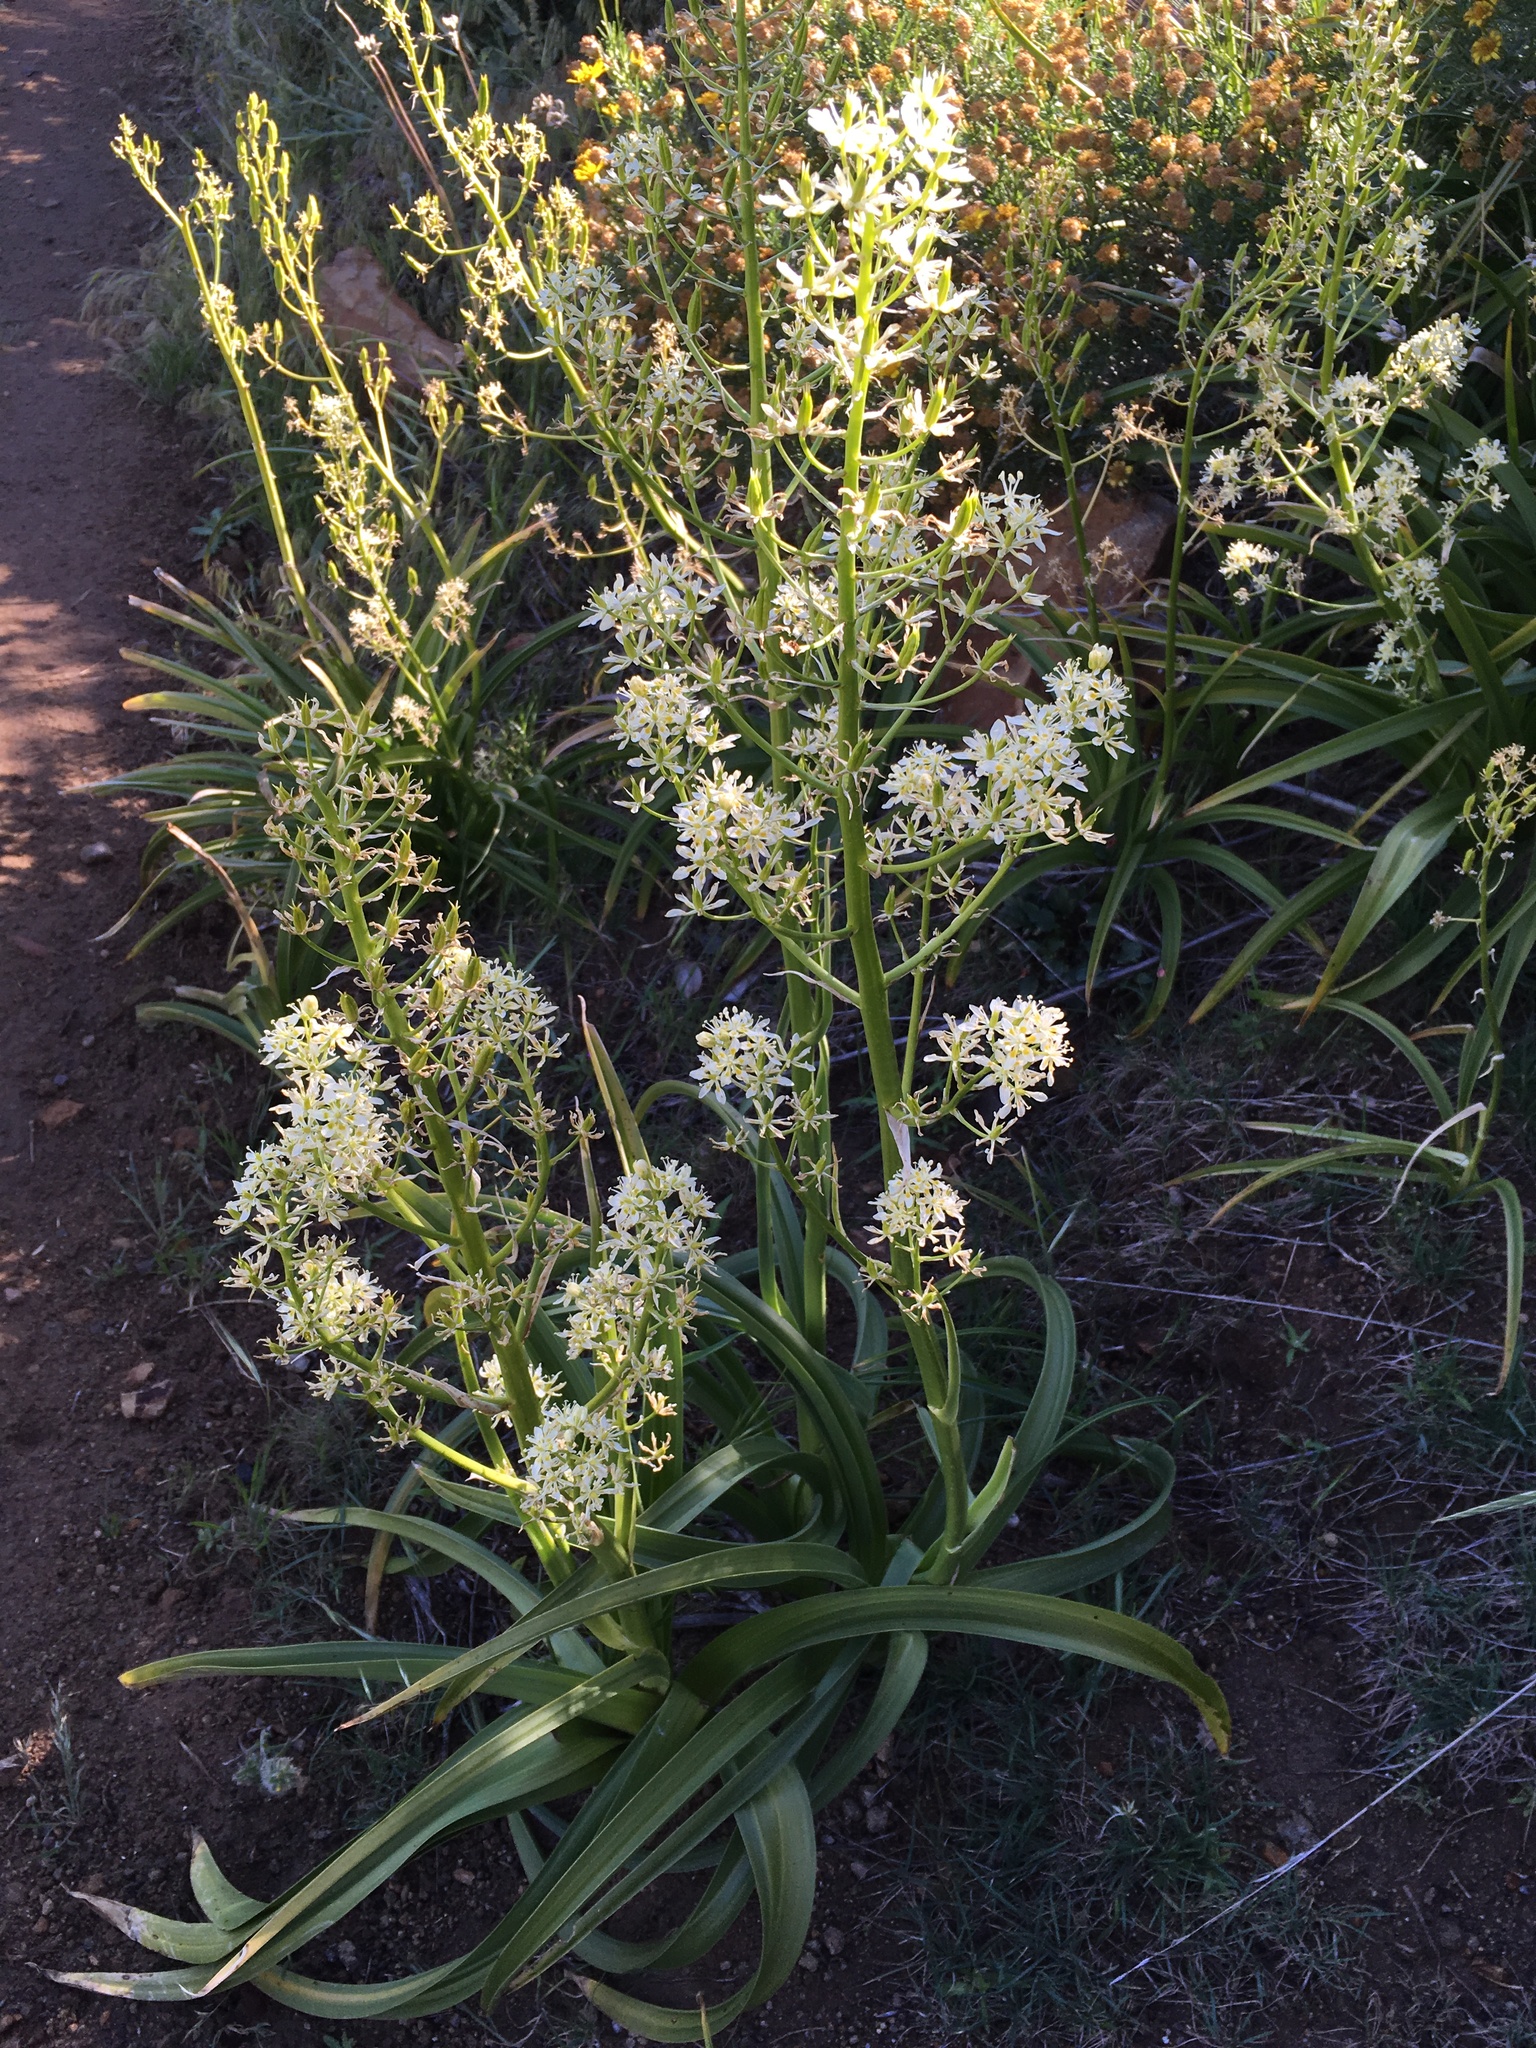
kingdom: Plantae
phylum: Tracheophyta
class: Liliopsida
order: Liliales
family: Melanthiaceae
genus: Toxicoscordion
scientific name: Toxicoscordion exaltatum
